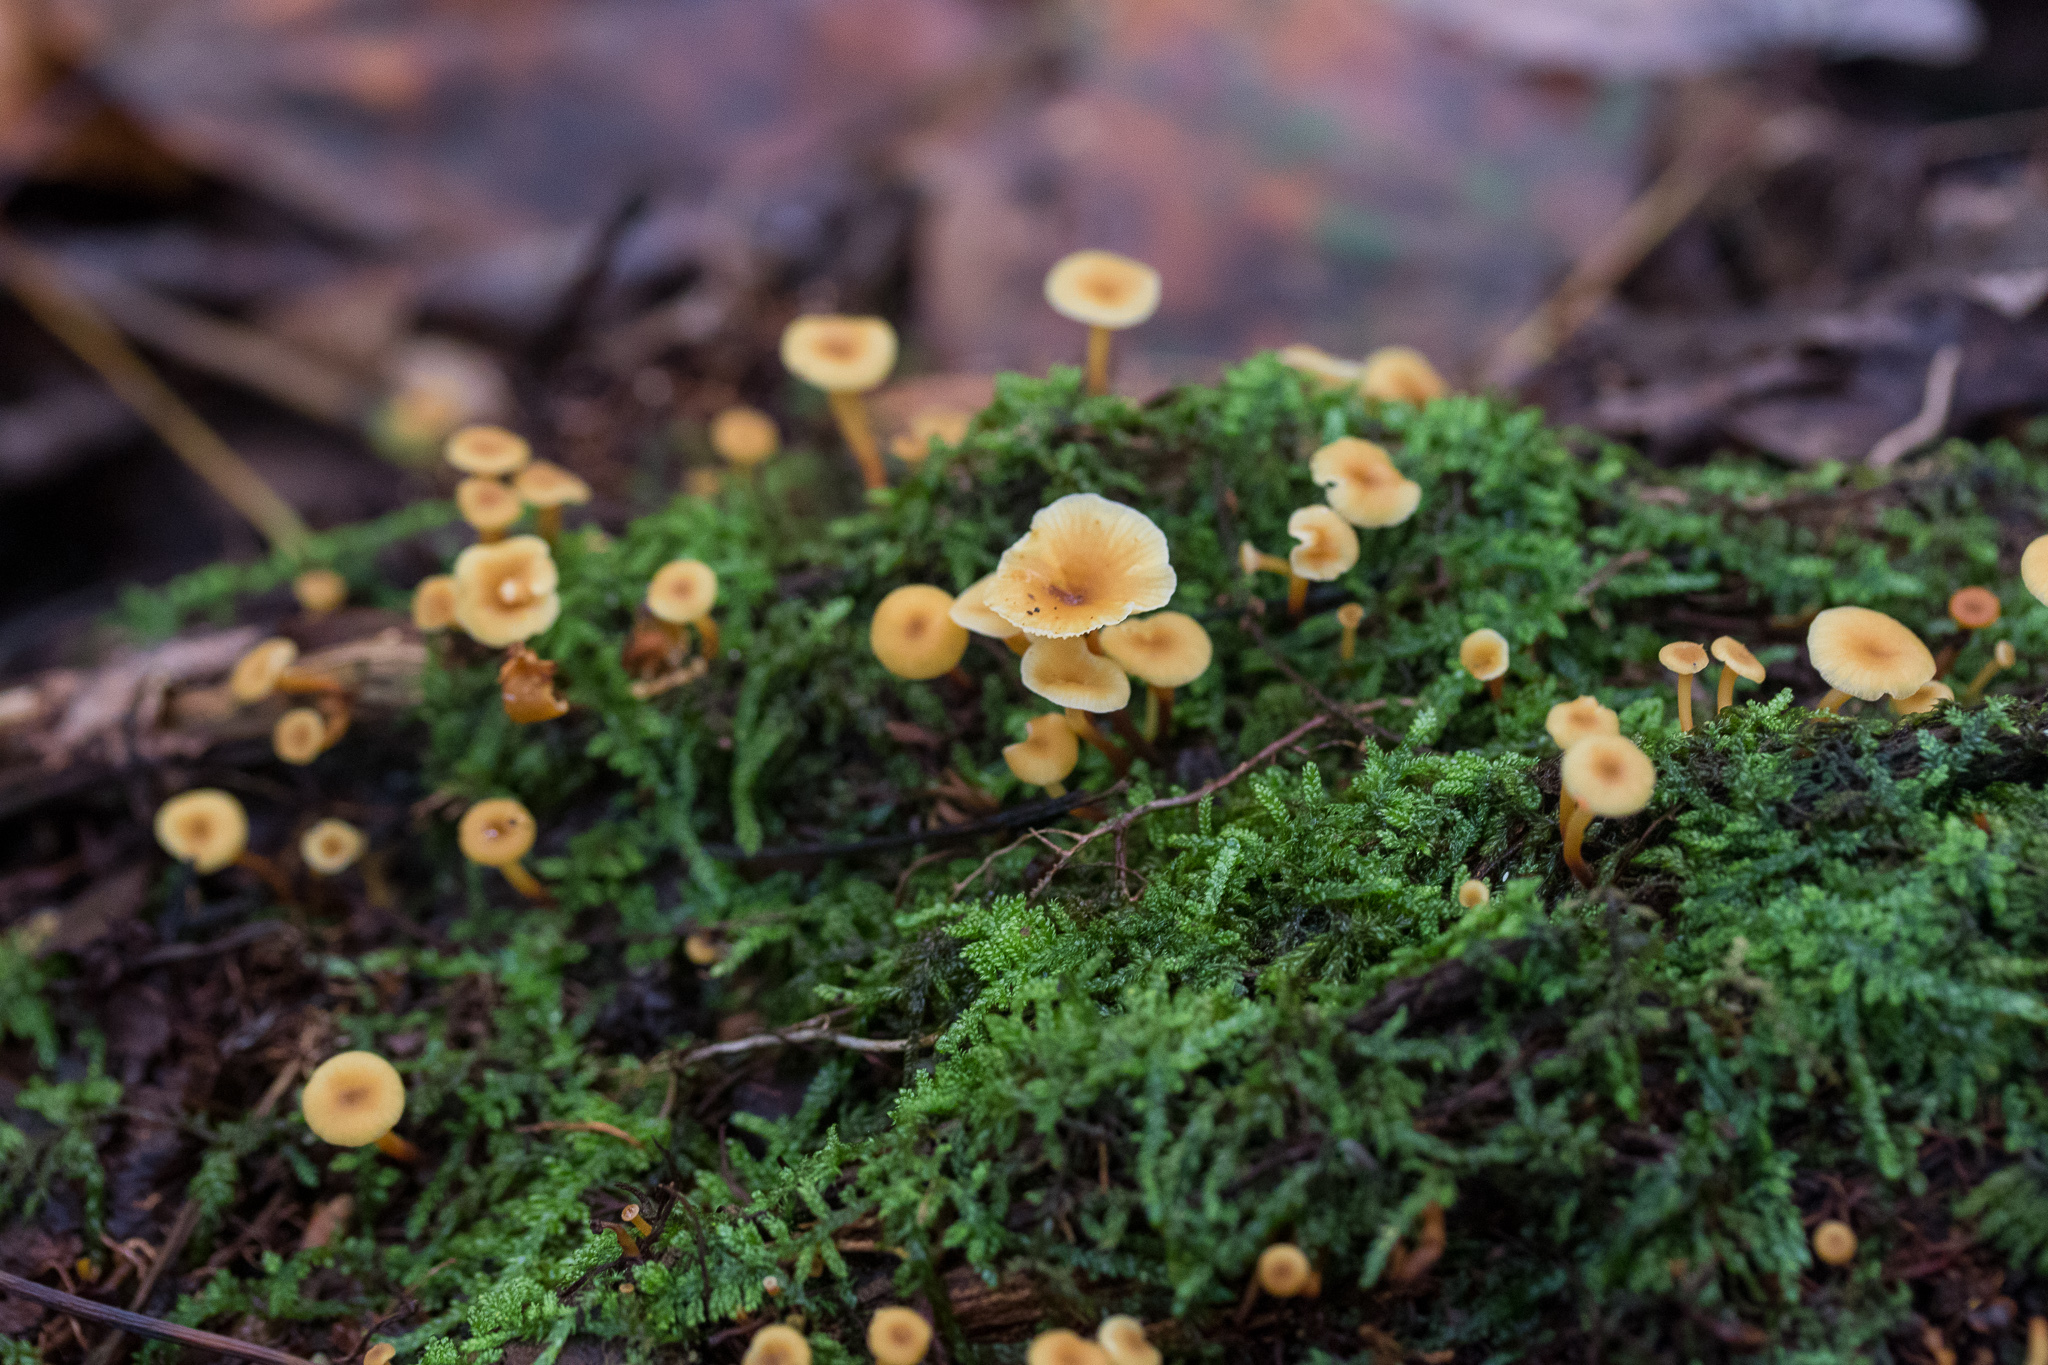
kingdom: Fungi
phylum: Basidiomycota
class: Agaricomycetes
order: Agaricales
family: Mycenaceae
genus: Xeromphalina
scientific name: Xeromphalina kauffmanii
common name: Cross-veined troop mushroom
